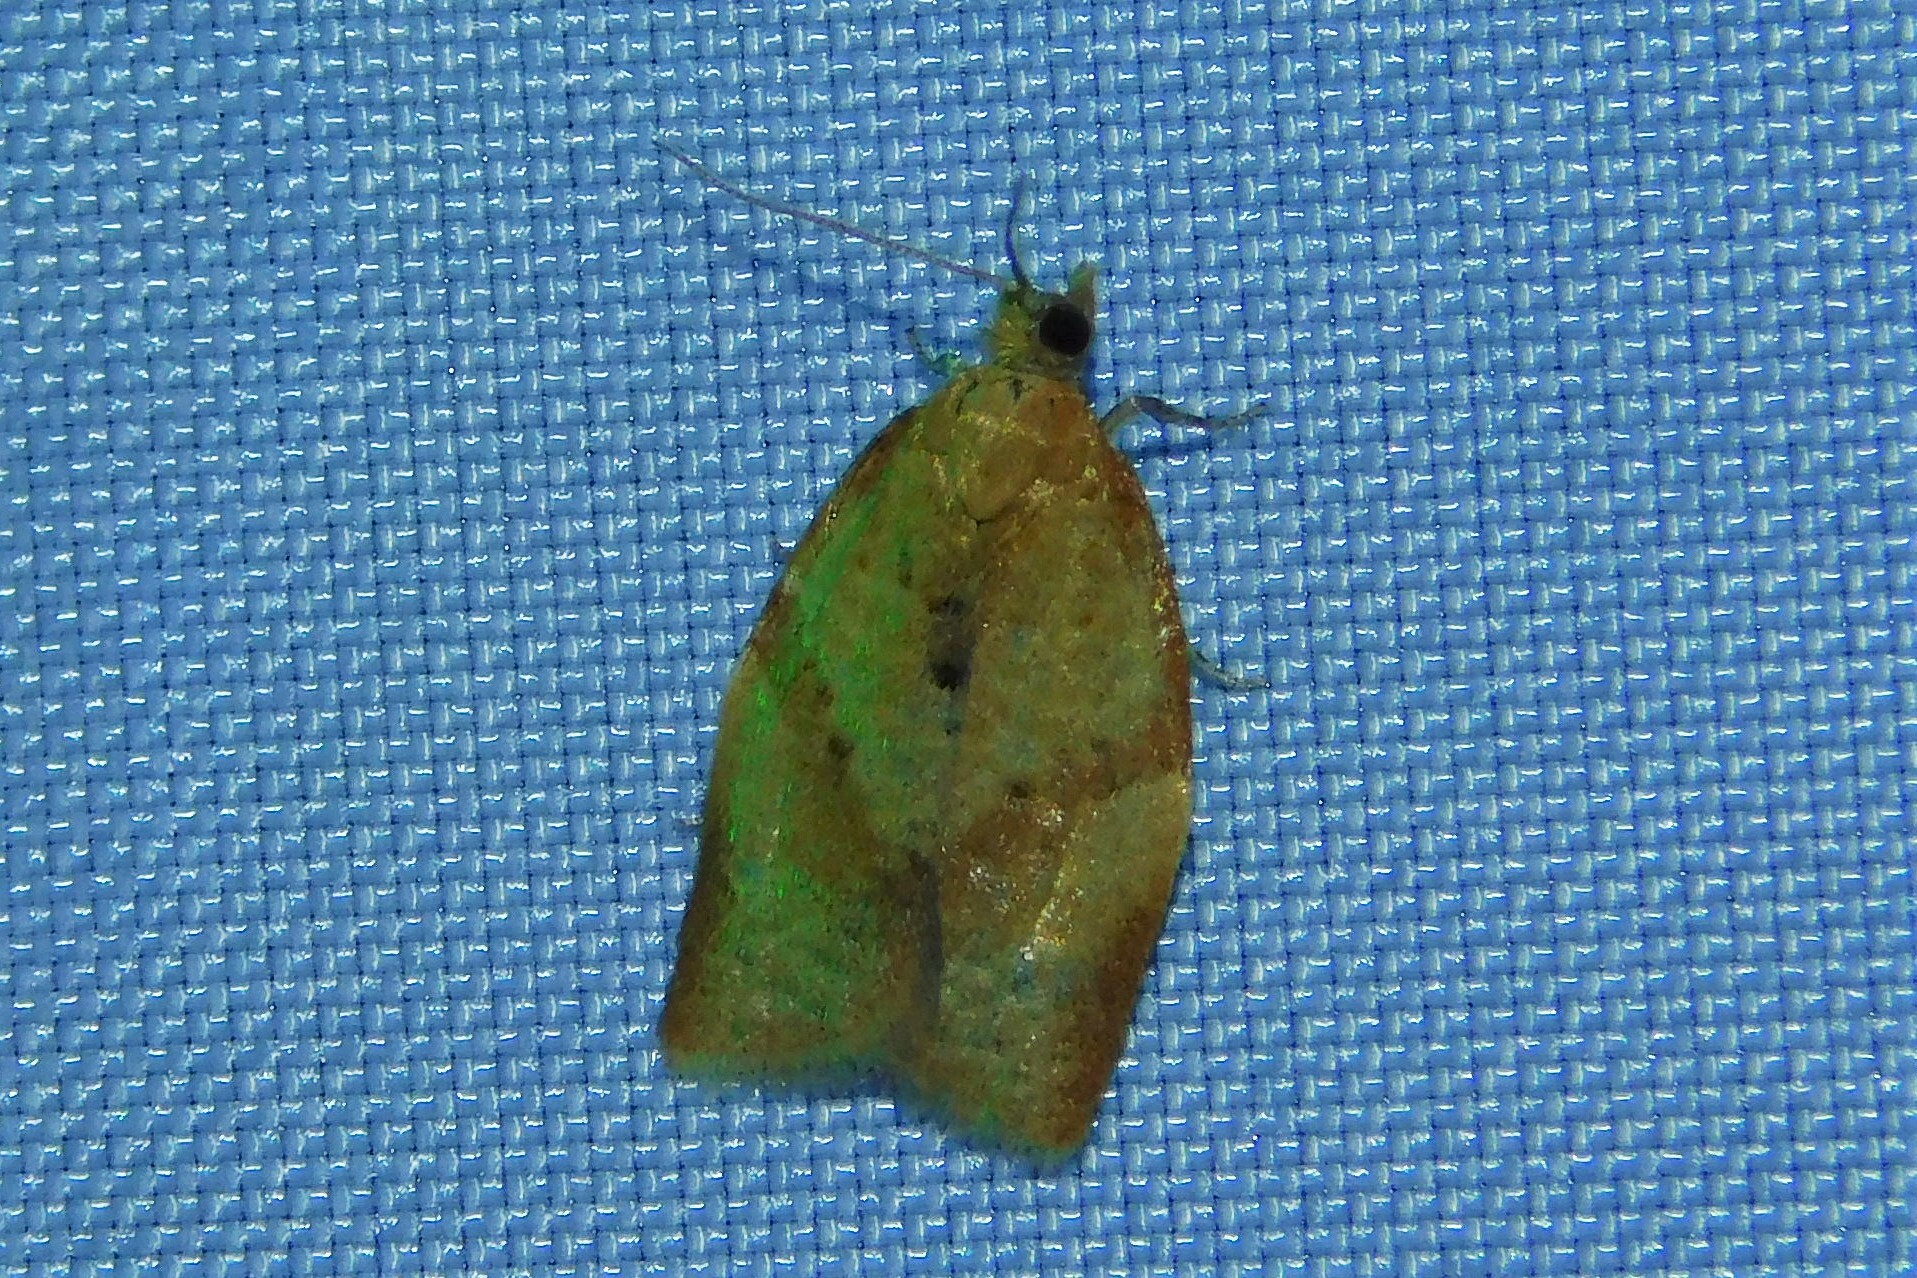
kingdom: Animalia
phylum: Arthropoda
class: Insecta
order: Lepidoptera
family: Tortricidae
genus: Clepsis
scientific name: Clepsis consimilana
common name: Privet tortrix
